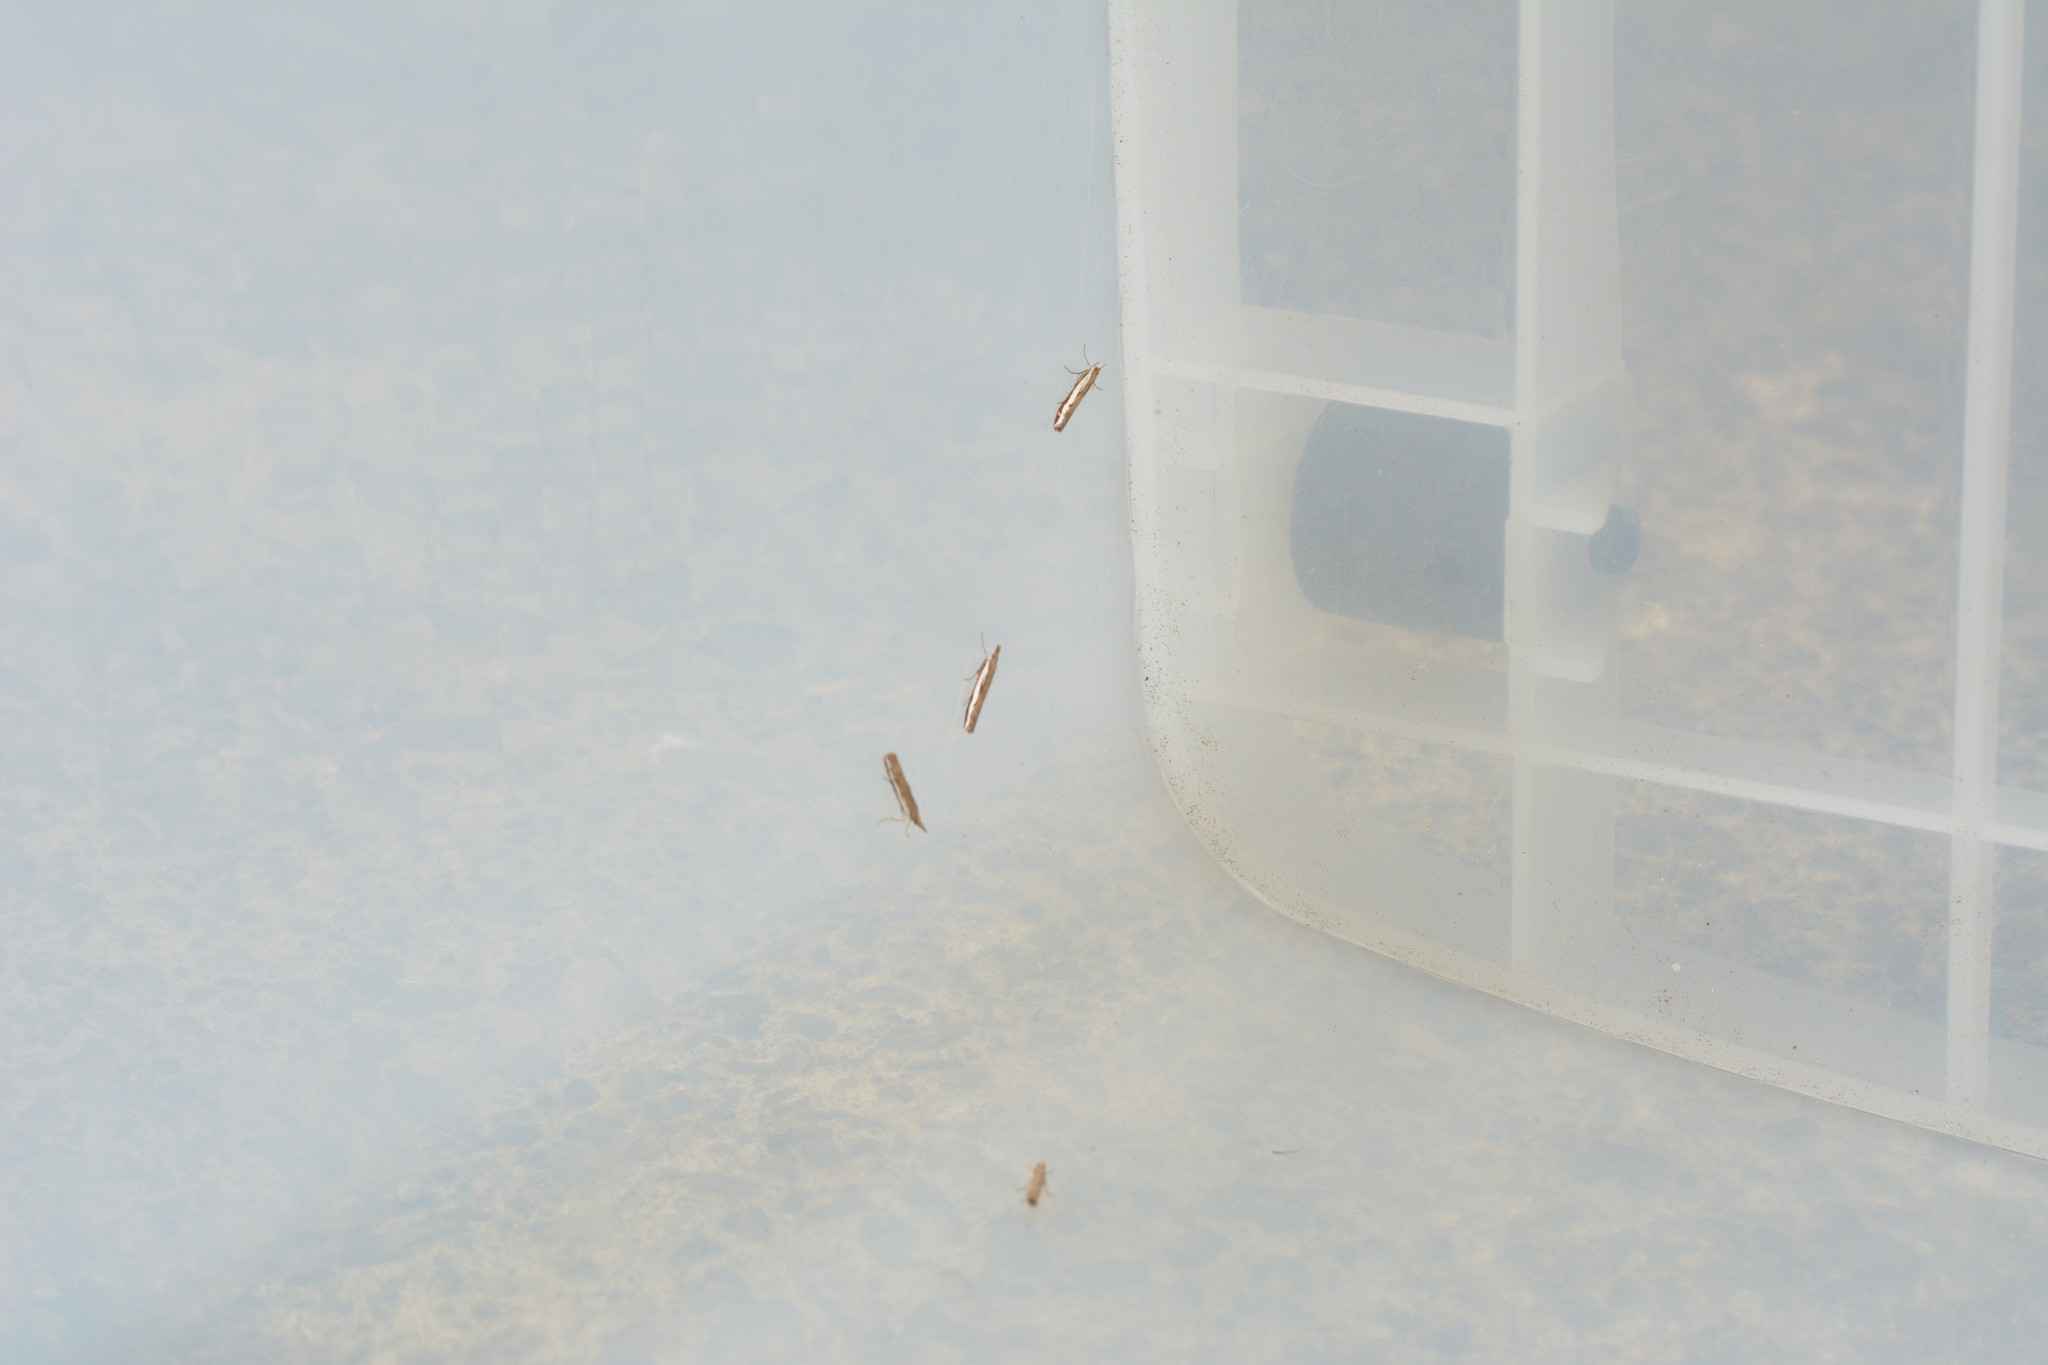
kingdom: Animalia
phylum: Arthropoda
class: Insecta
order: Lepidoptera
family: Crambidae
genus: Orocrambus
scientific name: Orocrambus flexuosellus
